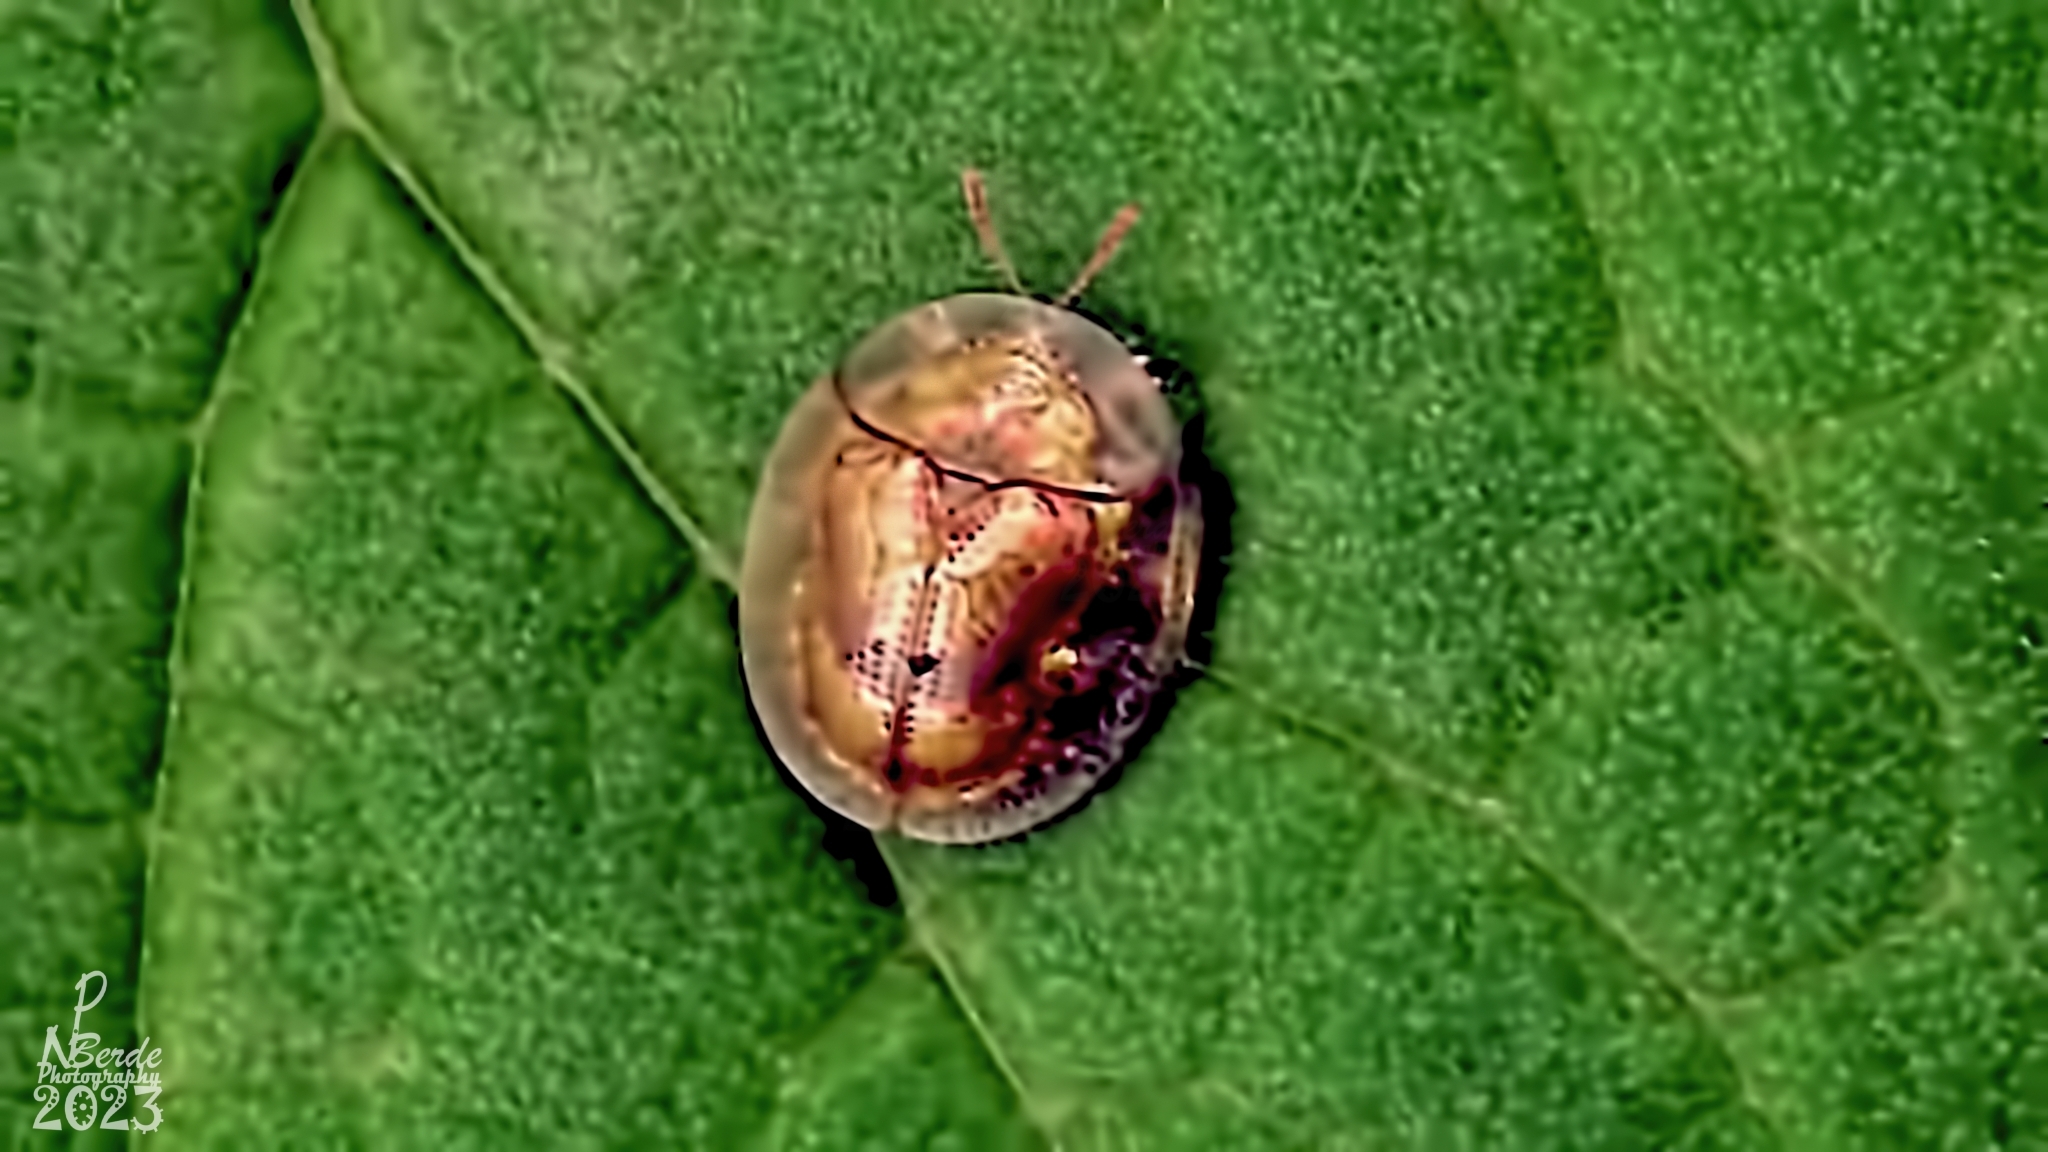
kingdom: Animalia
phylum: Arthropoda
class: Insecta
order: Coleoptera
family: Chrysomelidae
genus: Aspidimorpha
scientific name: Aspidimorpha sanctaecrucis
